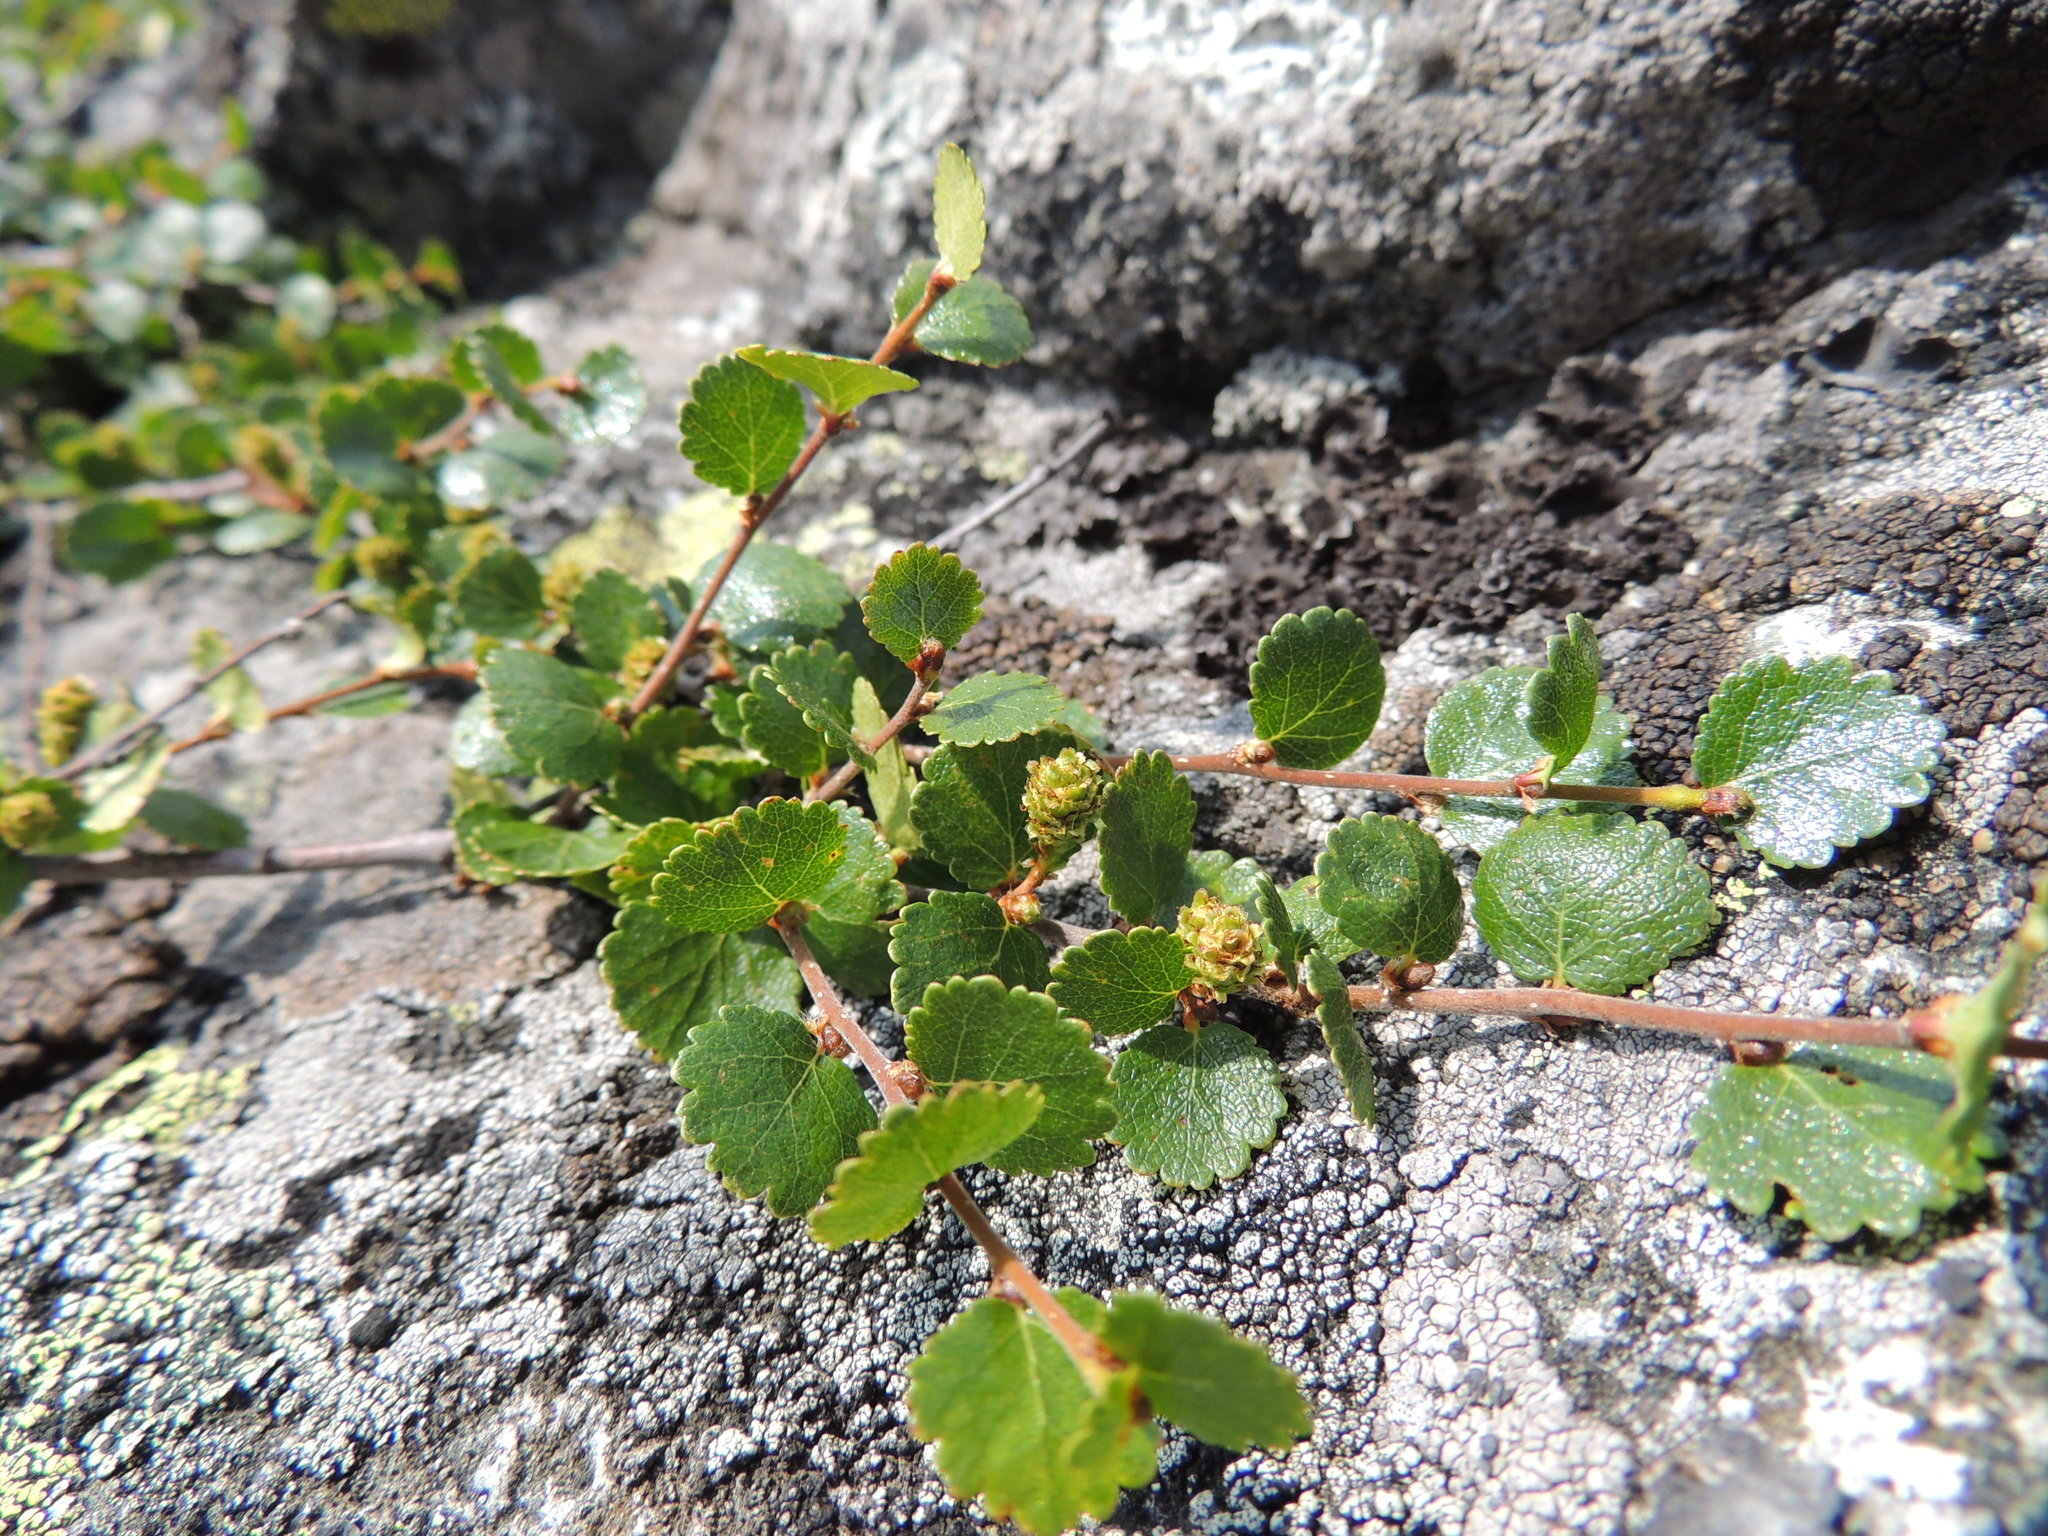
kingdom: Plantae
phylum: Tracheophyta
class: Magnoliopsida
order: Fagales
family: Betulaceae
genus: Betula
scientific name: Betula nana
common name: Arctic dwarf birch
